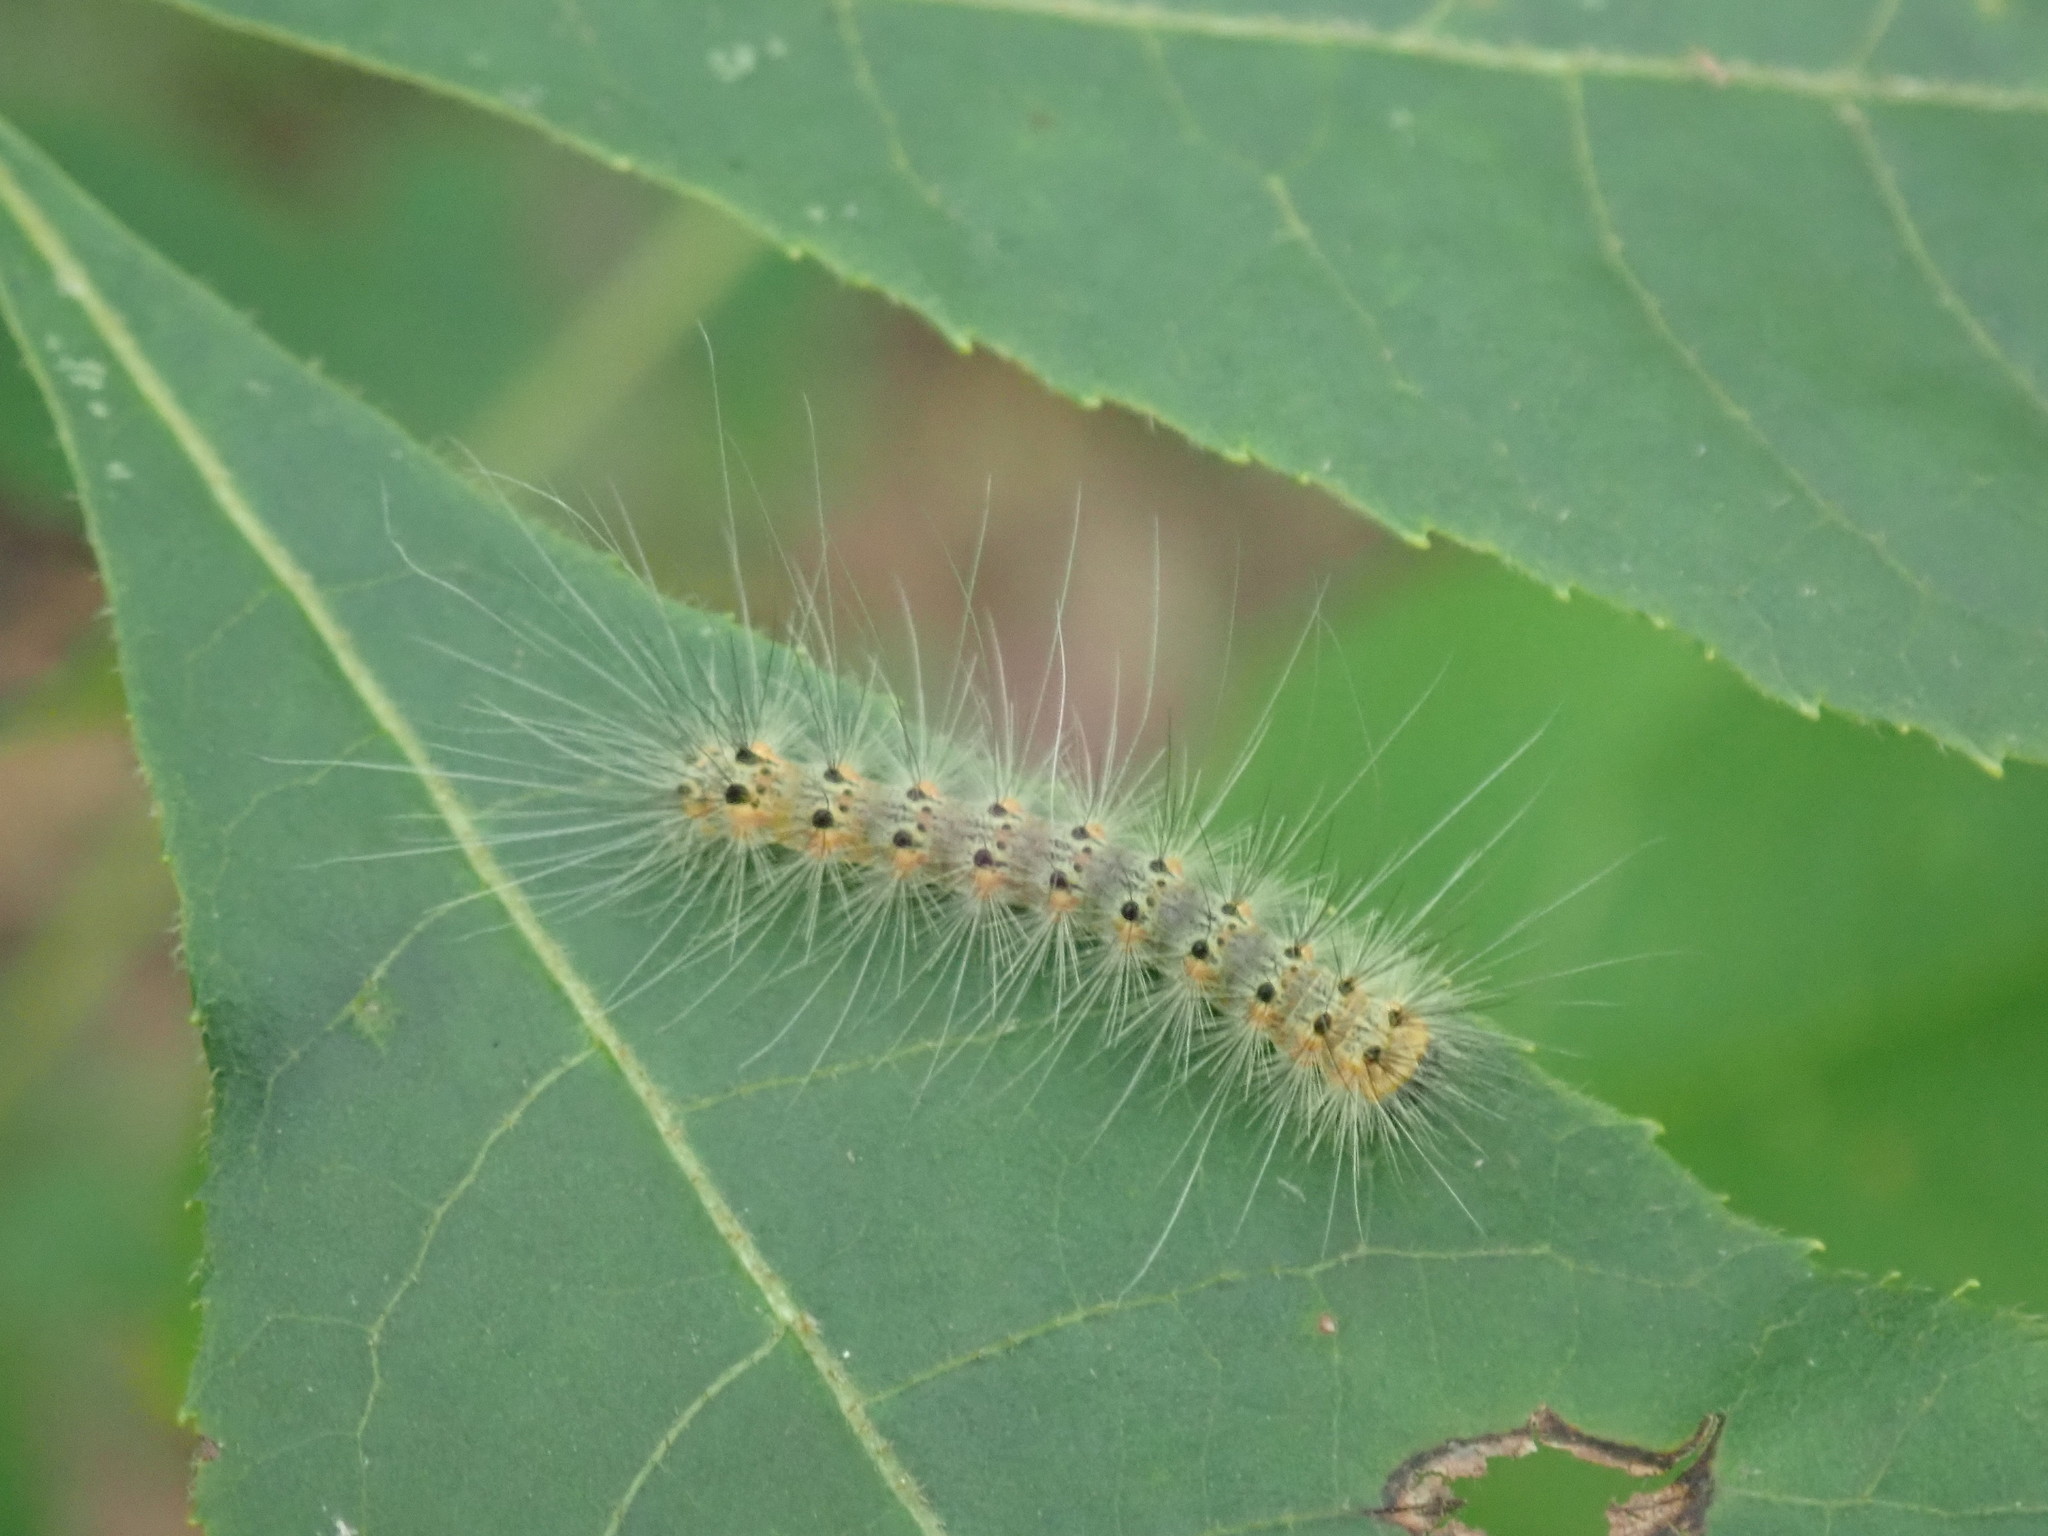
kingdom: Animalia
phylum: Arthropoda
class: Insecta
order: Lepidoptera
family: Erebidae
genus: Hyphantria
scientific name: Hyphantria cunea
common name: American white moth
